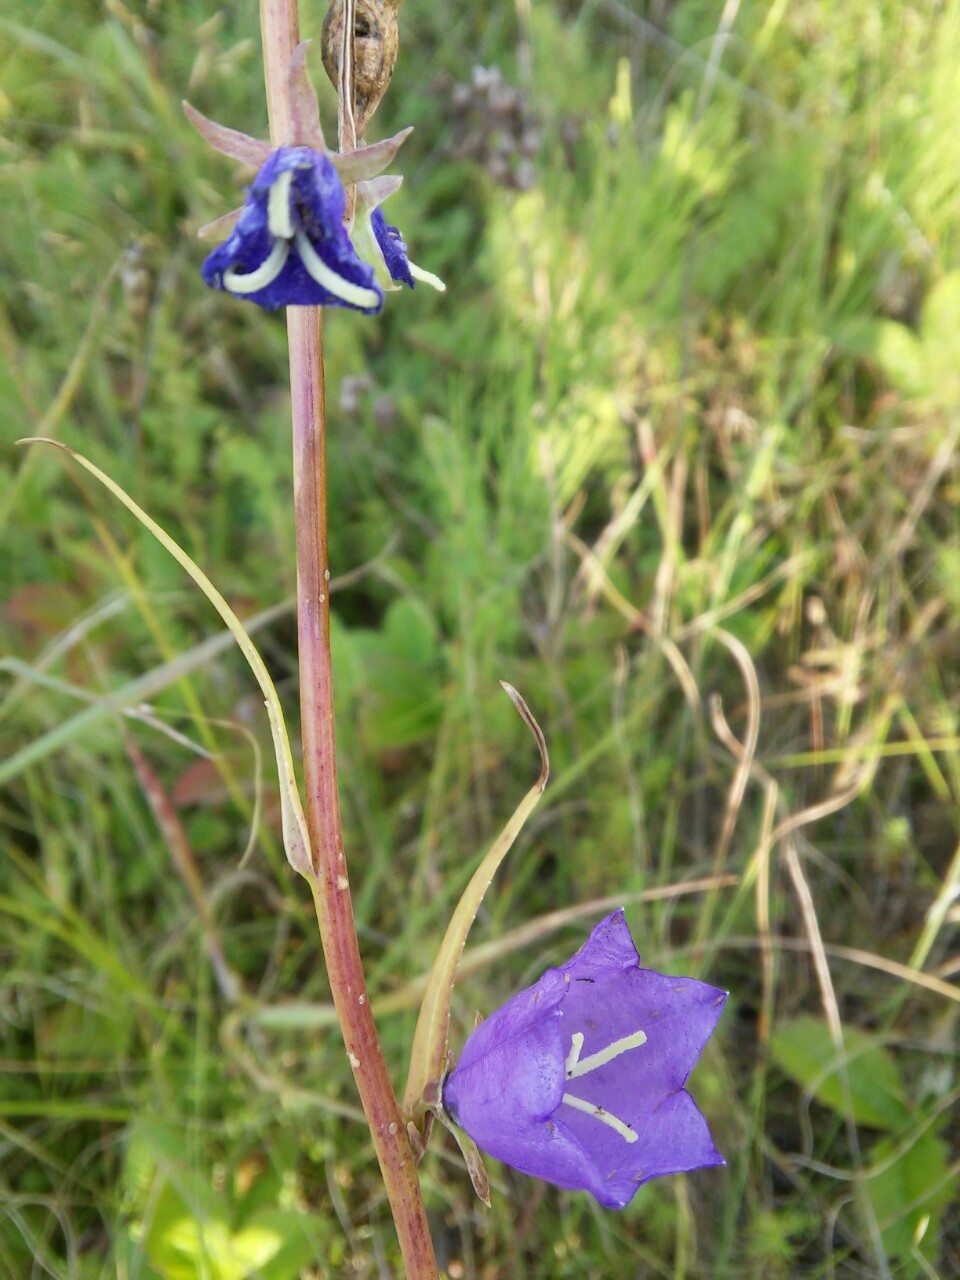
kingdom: Plantae
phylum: Tracheophyta
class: Magnoliopsida
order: Asterales
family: Campanulaceae
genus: Campanula
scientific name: Campanula persicifolia
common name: Peach-leaved bellflower
